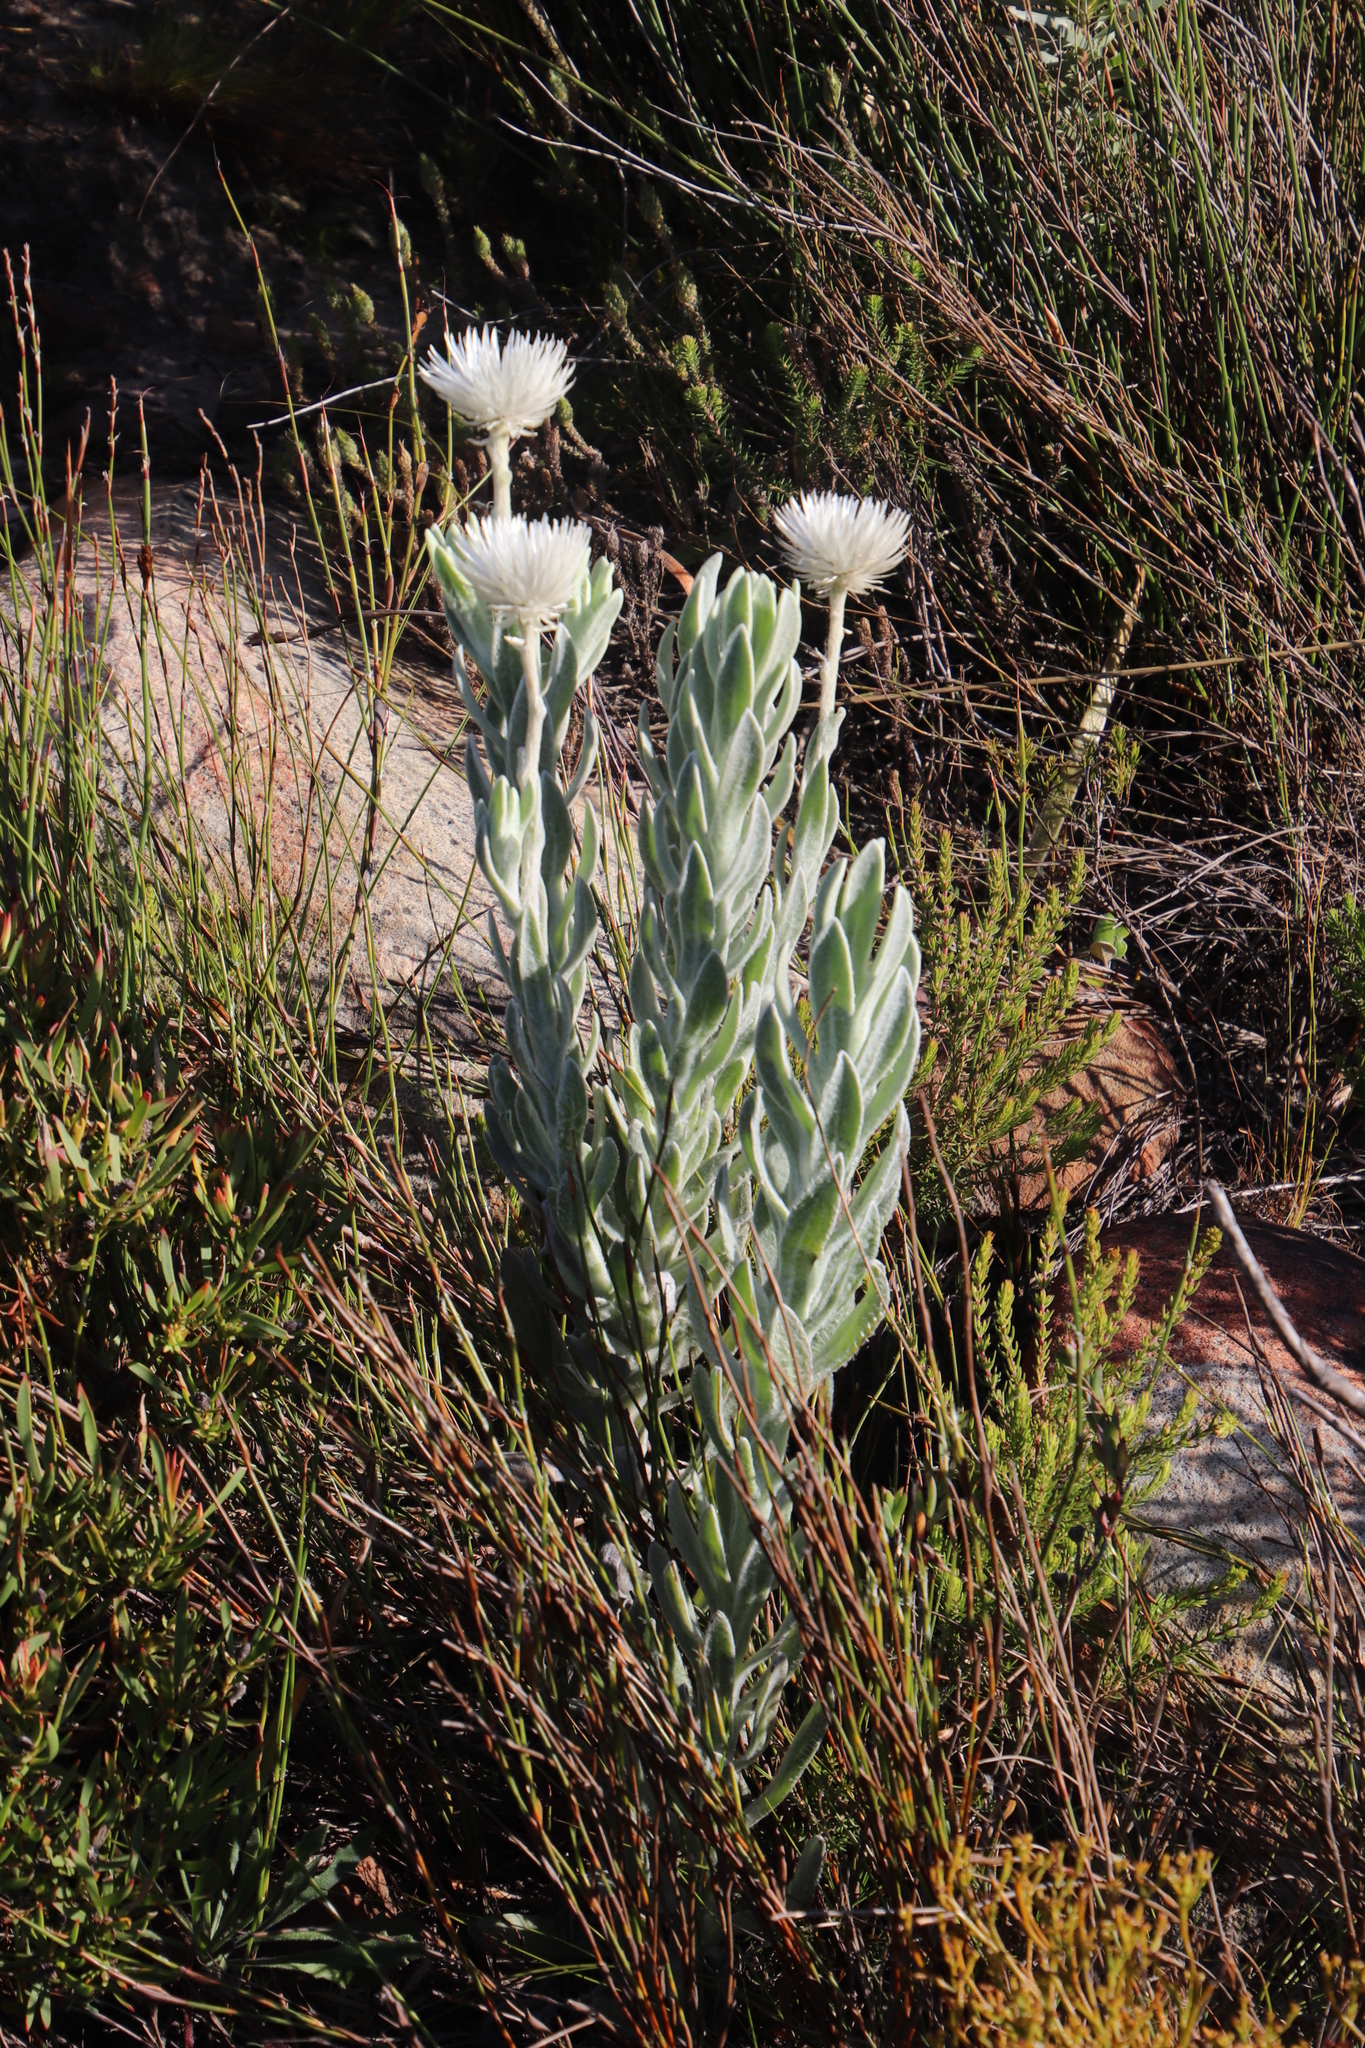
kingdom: Plantae
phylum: Tracheophyta
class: Magnoliopsida
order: Asterales
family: Asteraceae
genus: Syncarpha
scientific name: Syncarpha vestita
